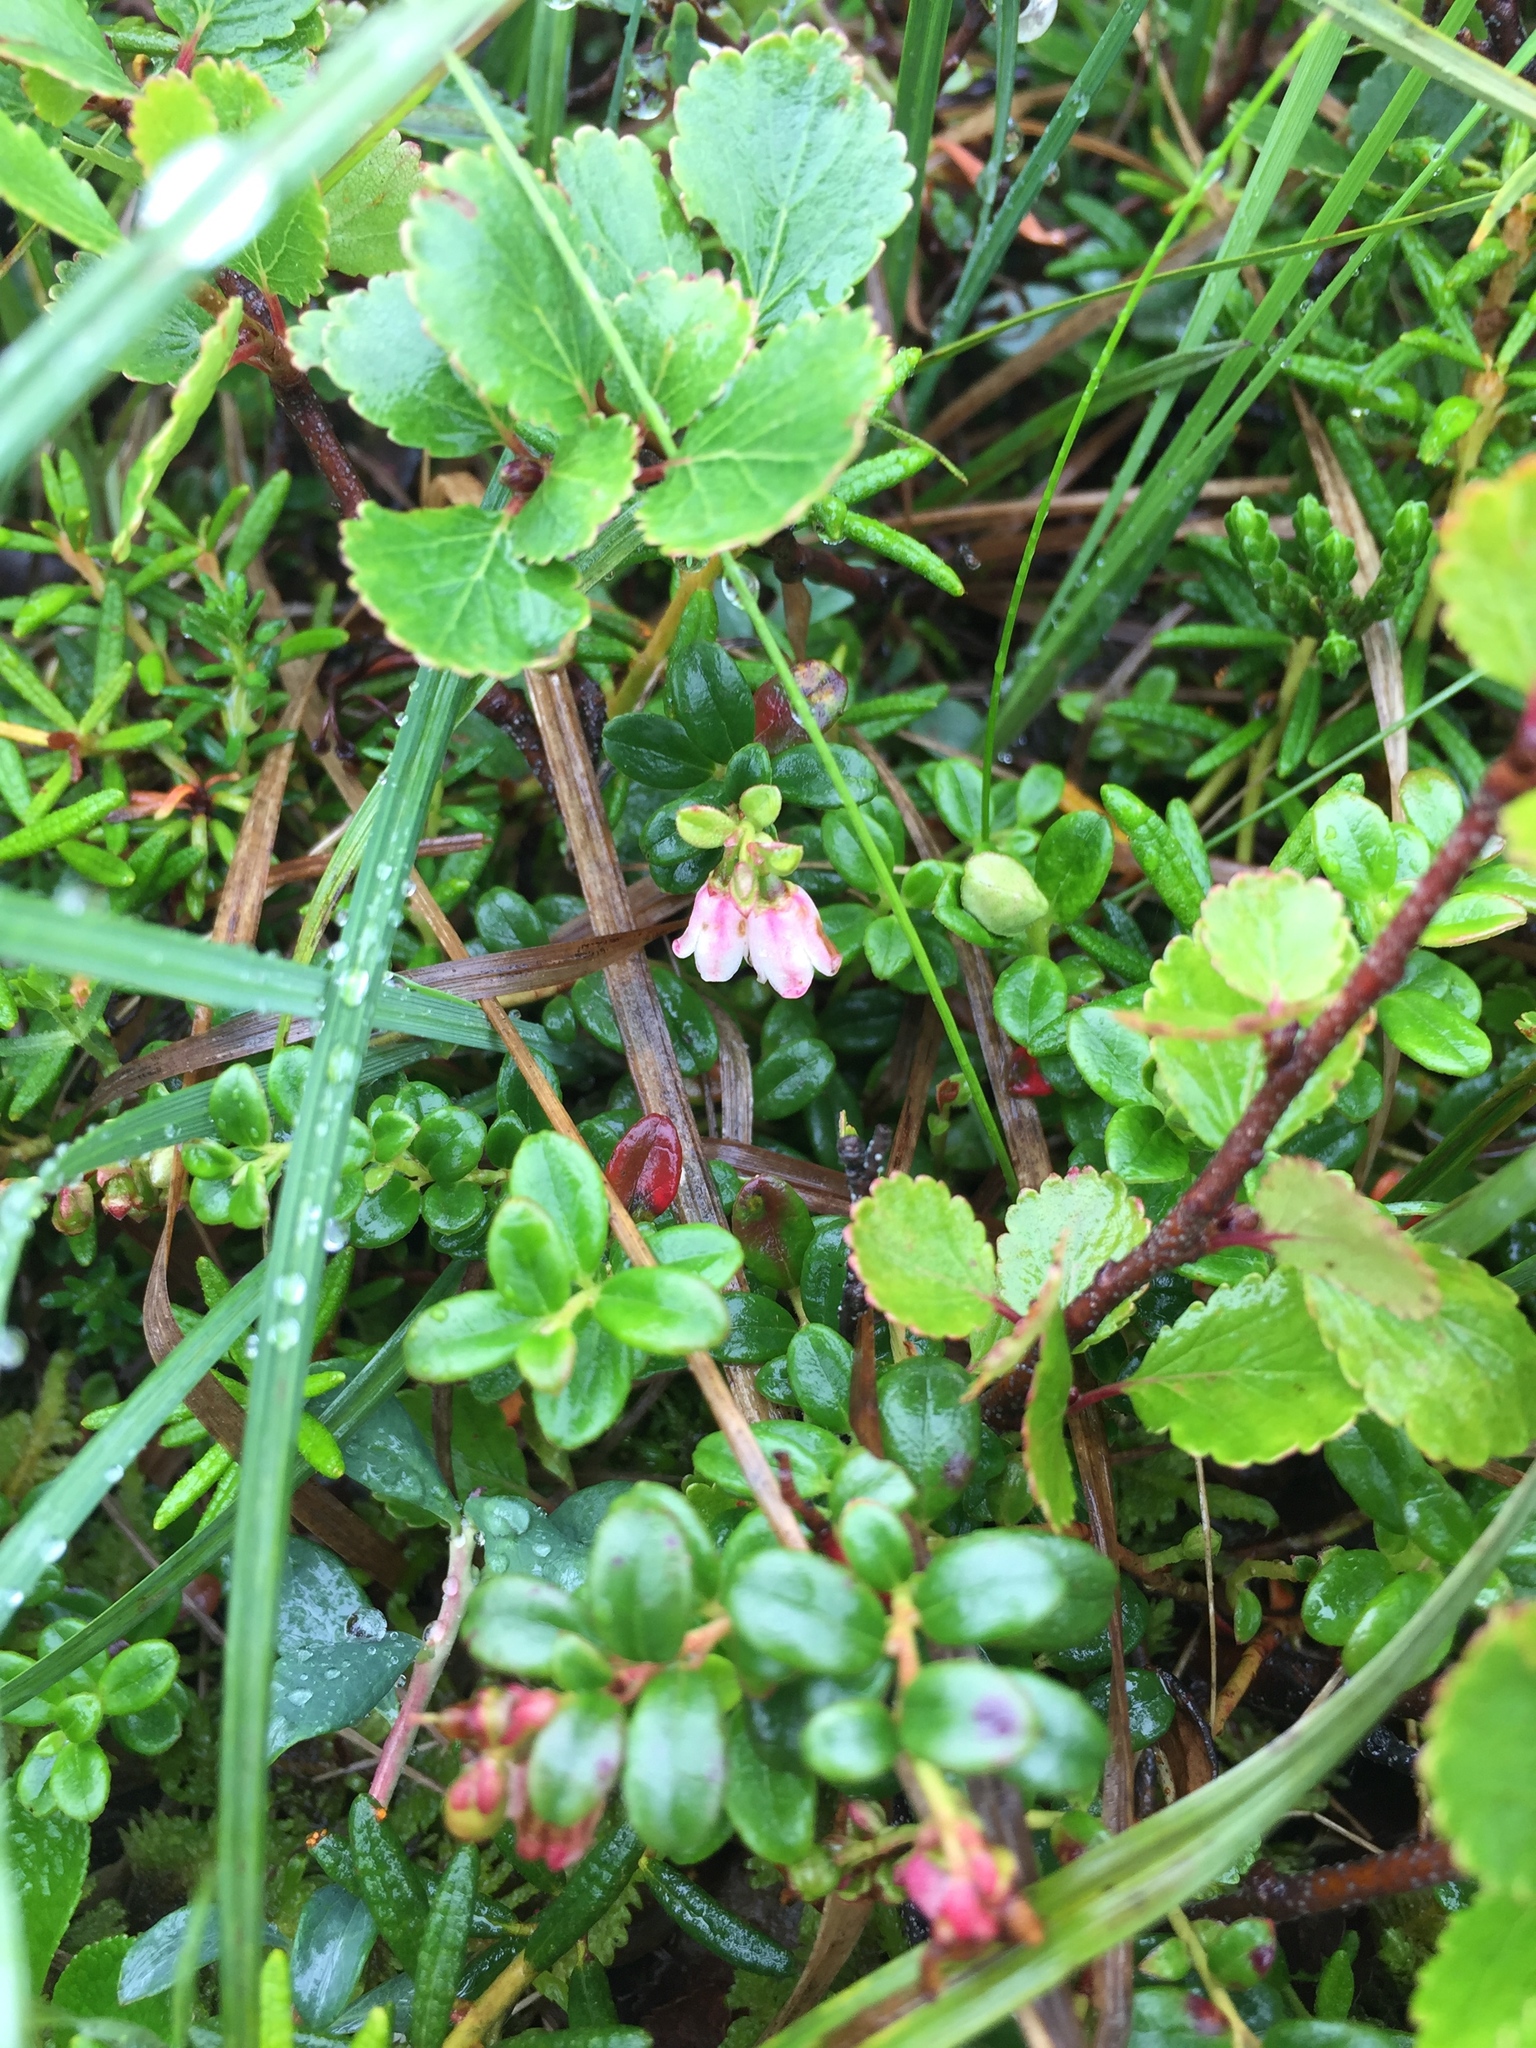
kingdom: Plantae
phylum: Tracheophyta
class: Magnoliopsida
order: Ericales
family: Ericaceae
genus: Vaccinium
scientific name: Vaccinium vitis-idaea
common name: Cowberry
